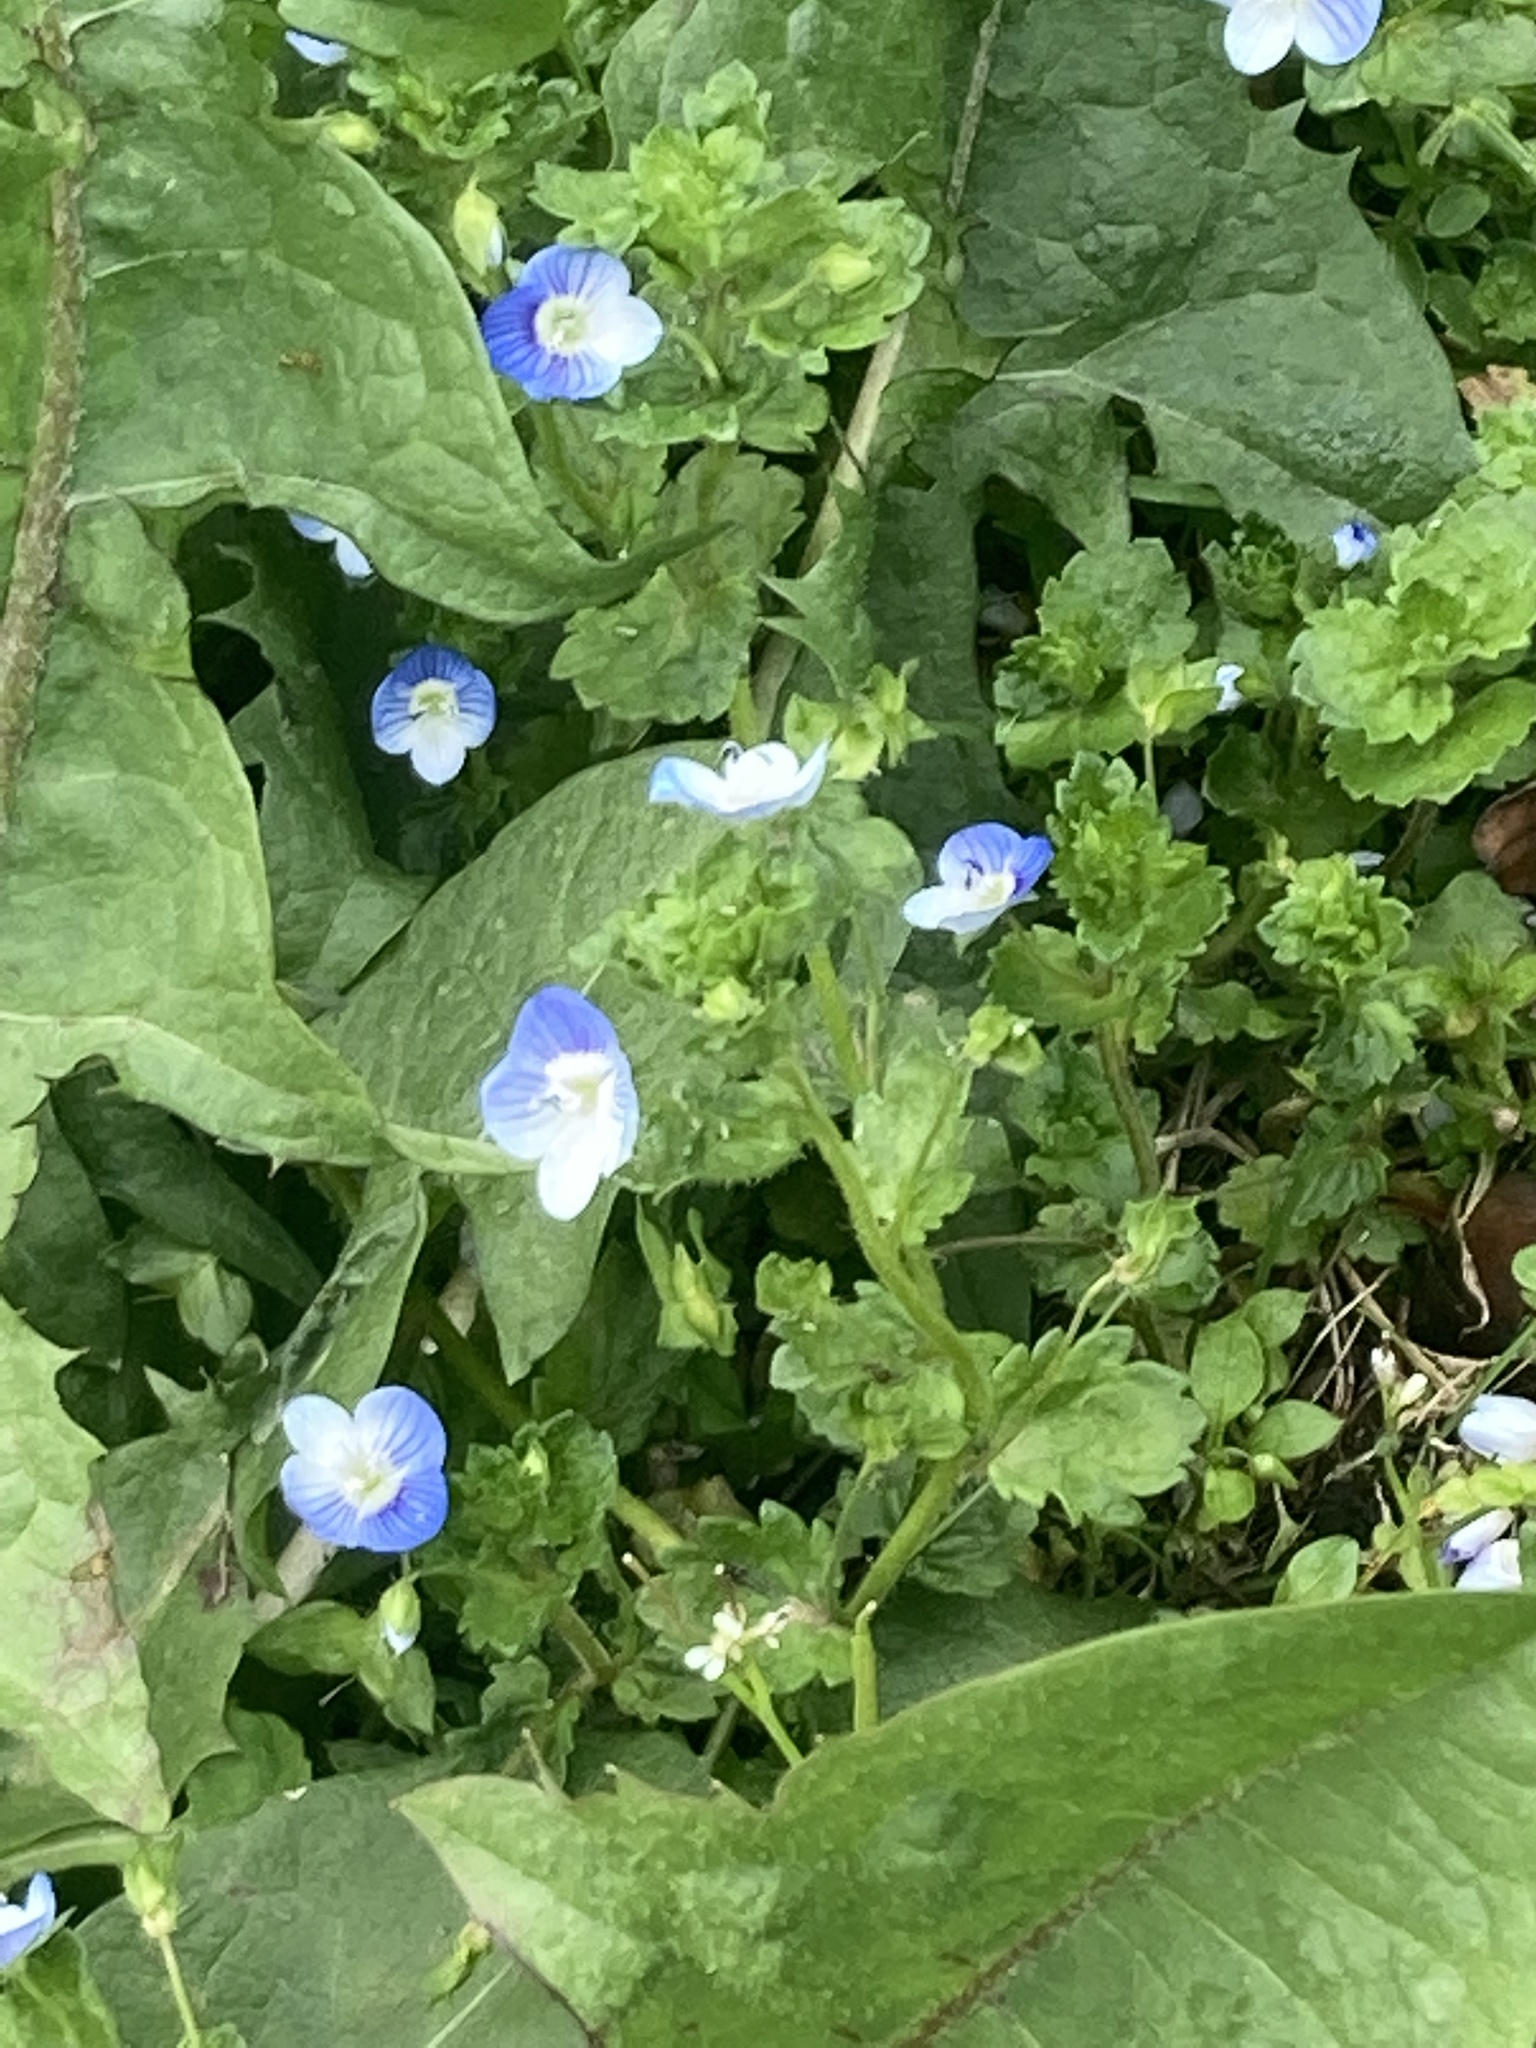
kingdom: Plantae
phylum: Tracheophyta
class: Magnoliopsida
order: Lamiales
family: Plantaginaceae
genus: Veronica
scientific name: Veronica persica
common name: Common field-speedwell
